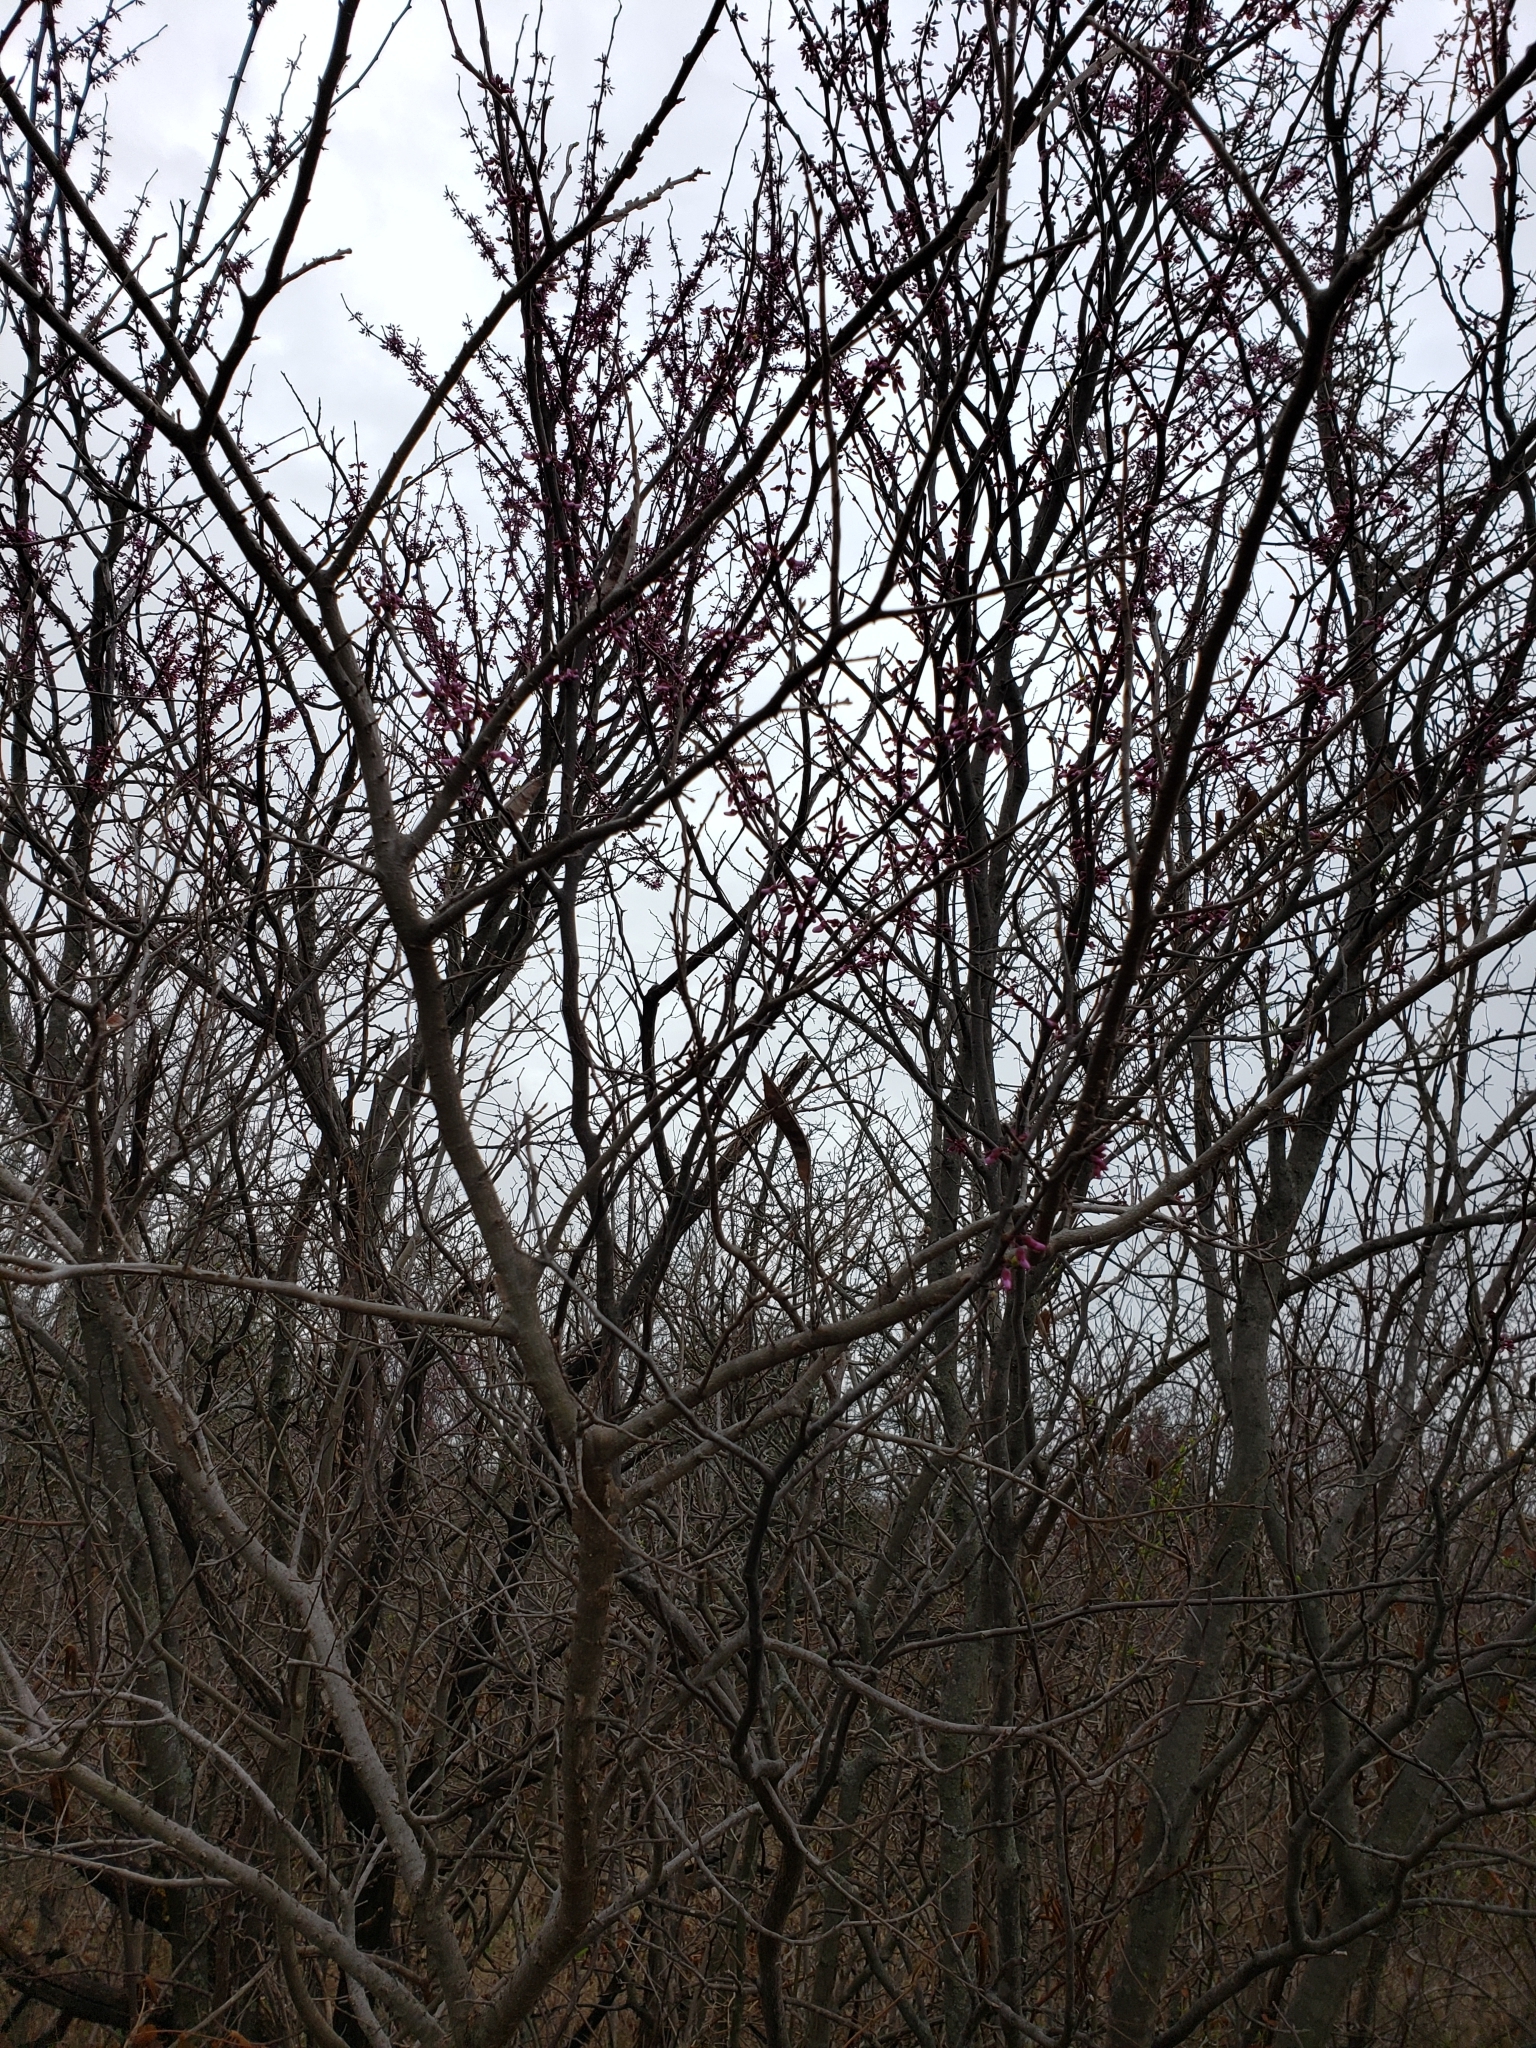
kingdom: Plantae
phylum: Tracheophyta
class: Magnoliopsida
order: Fabales
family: Fabaceae
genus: Cercis
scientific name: Cercis canadensis
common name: Eastern redbud
